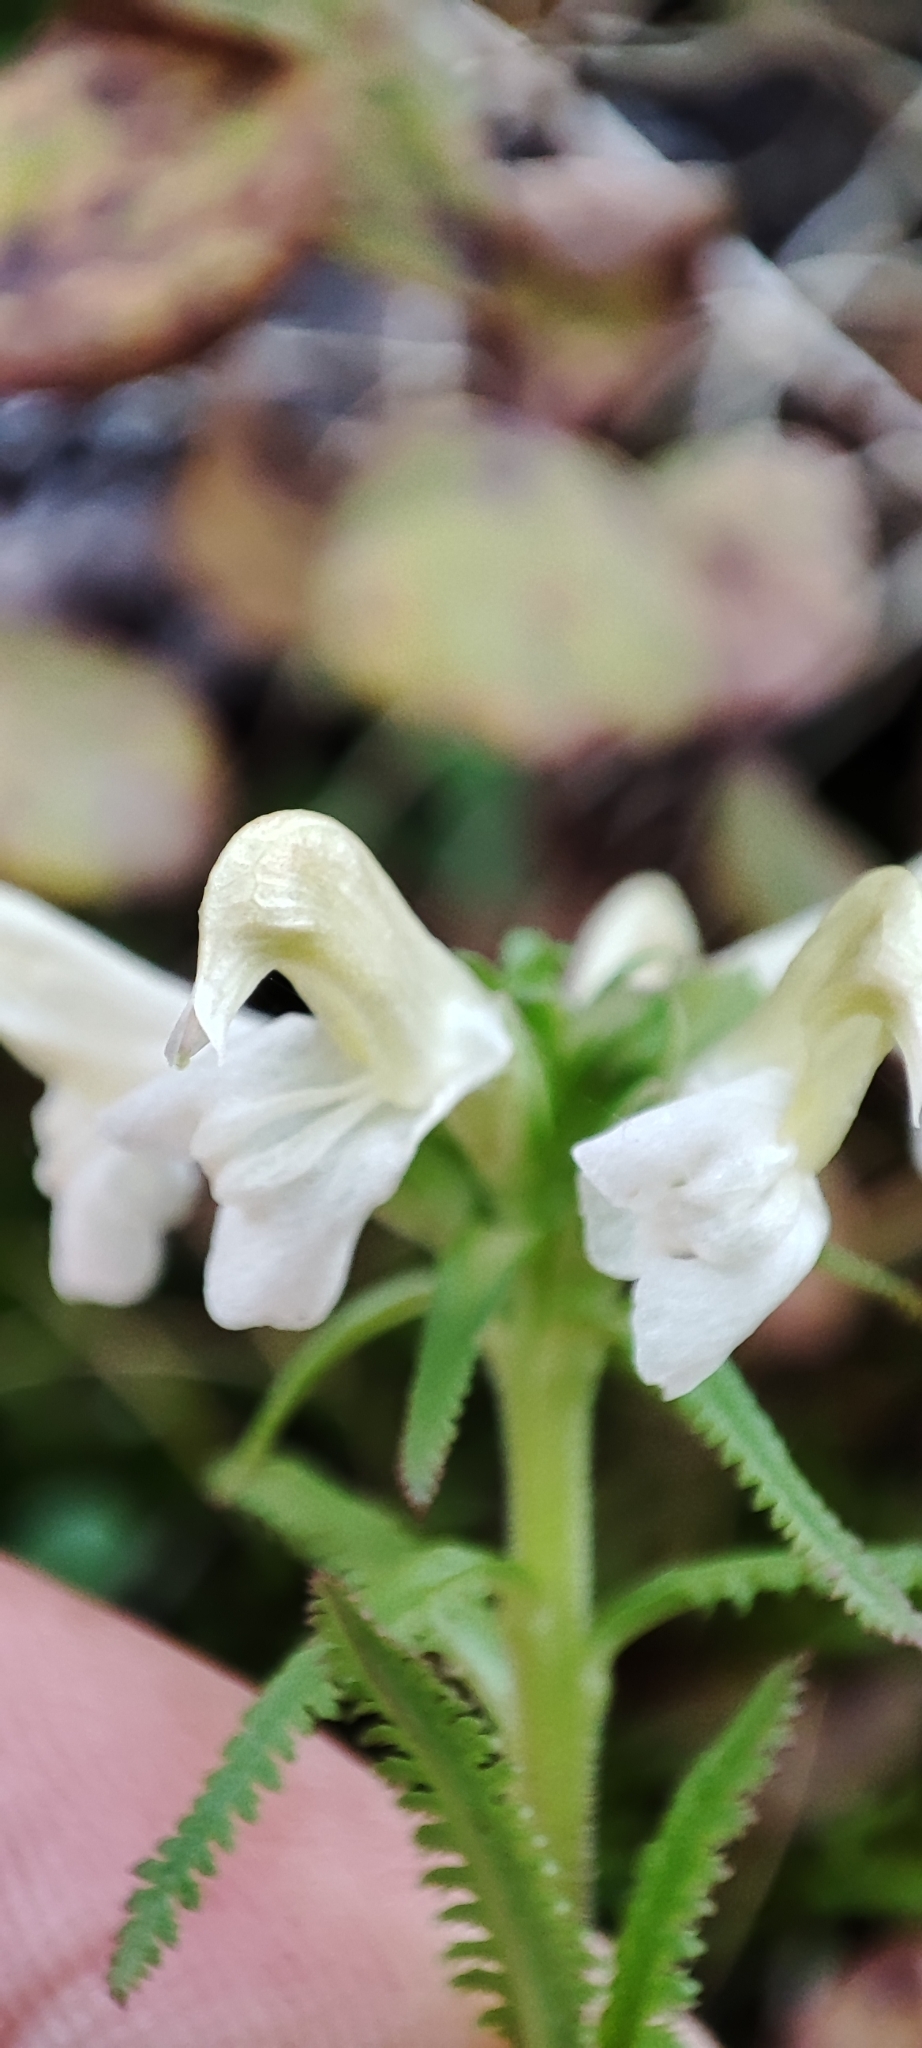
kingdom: Plantae
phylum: Tracheophyta
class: Magnoliopsida
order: Lamiales
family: Orobanchaceae
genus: Pedicularis
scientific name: Pedicularis lapponica
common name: Lapland lousewort
